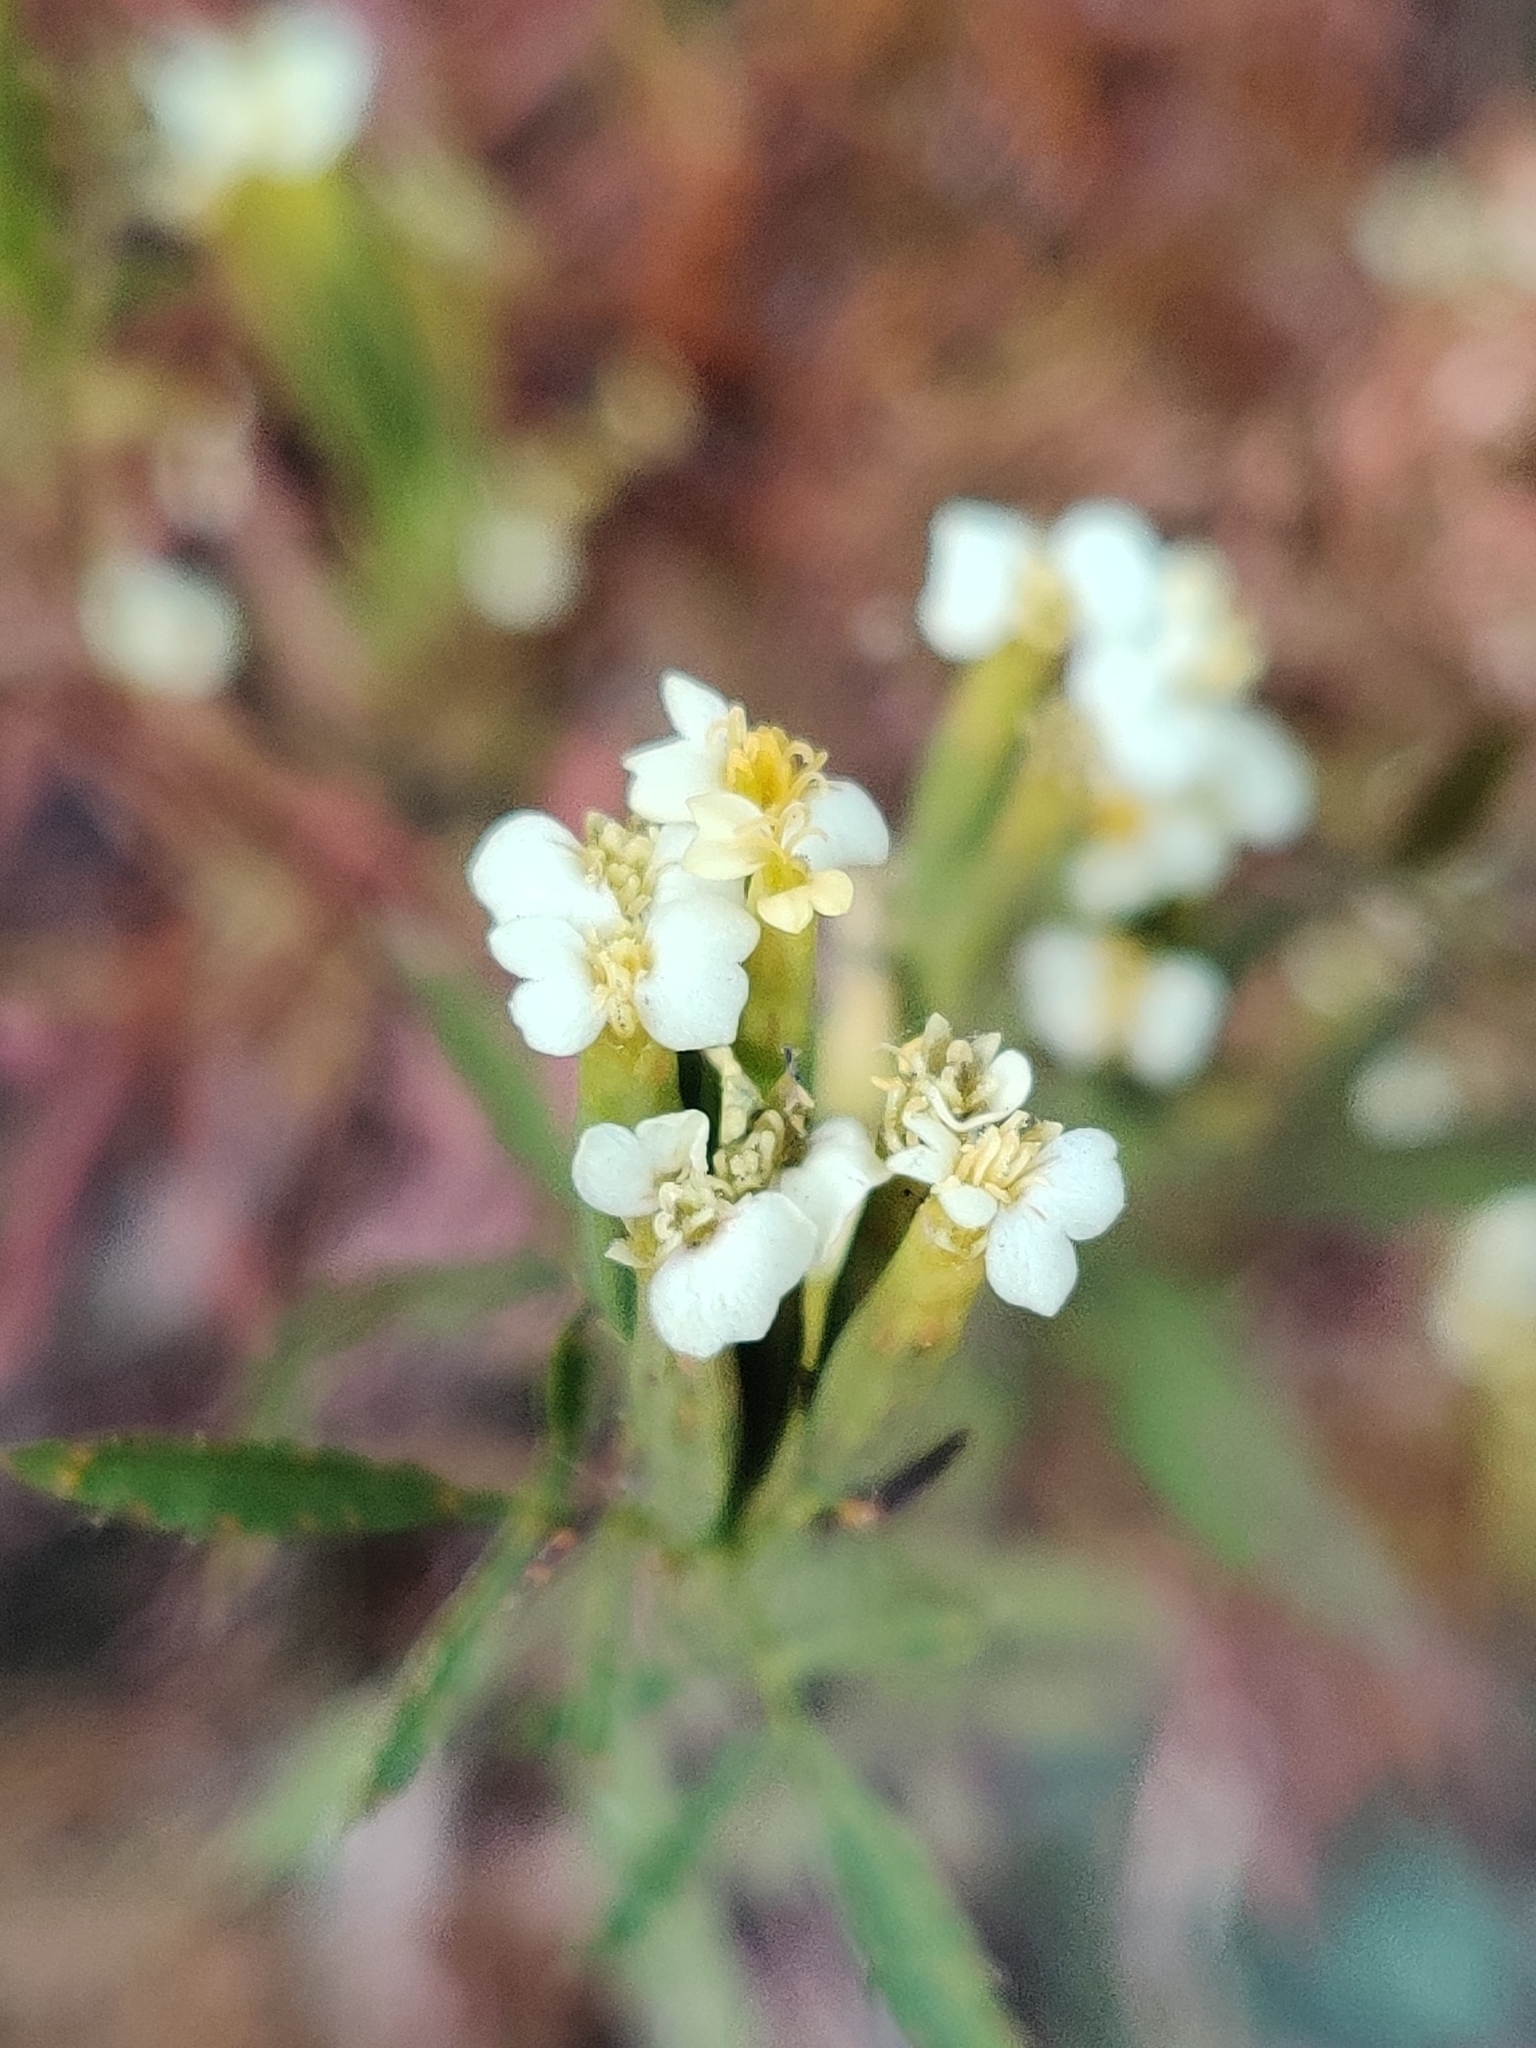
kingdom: Plantae
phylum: Tracheophyta
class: Magnoliopsida
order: Asterales
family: Asteraceae
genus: Tagetes
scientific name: Tagetes minuta
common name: Muster john henry
